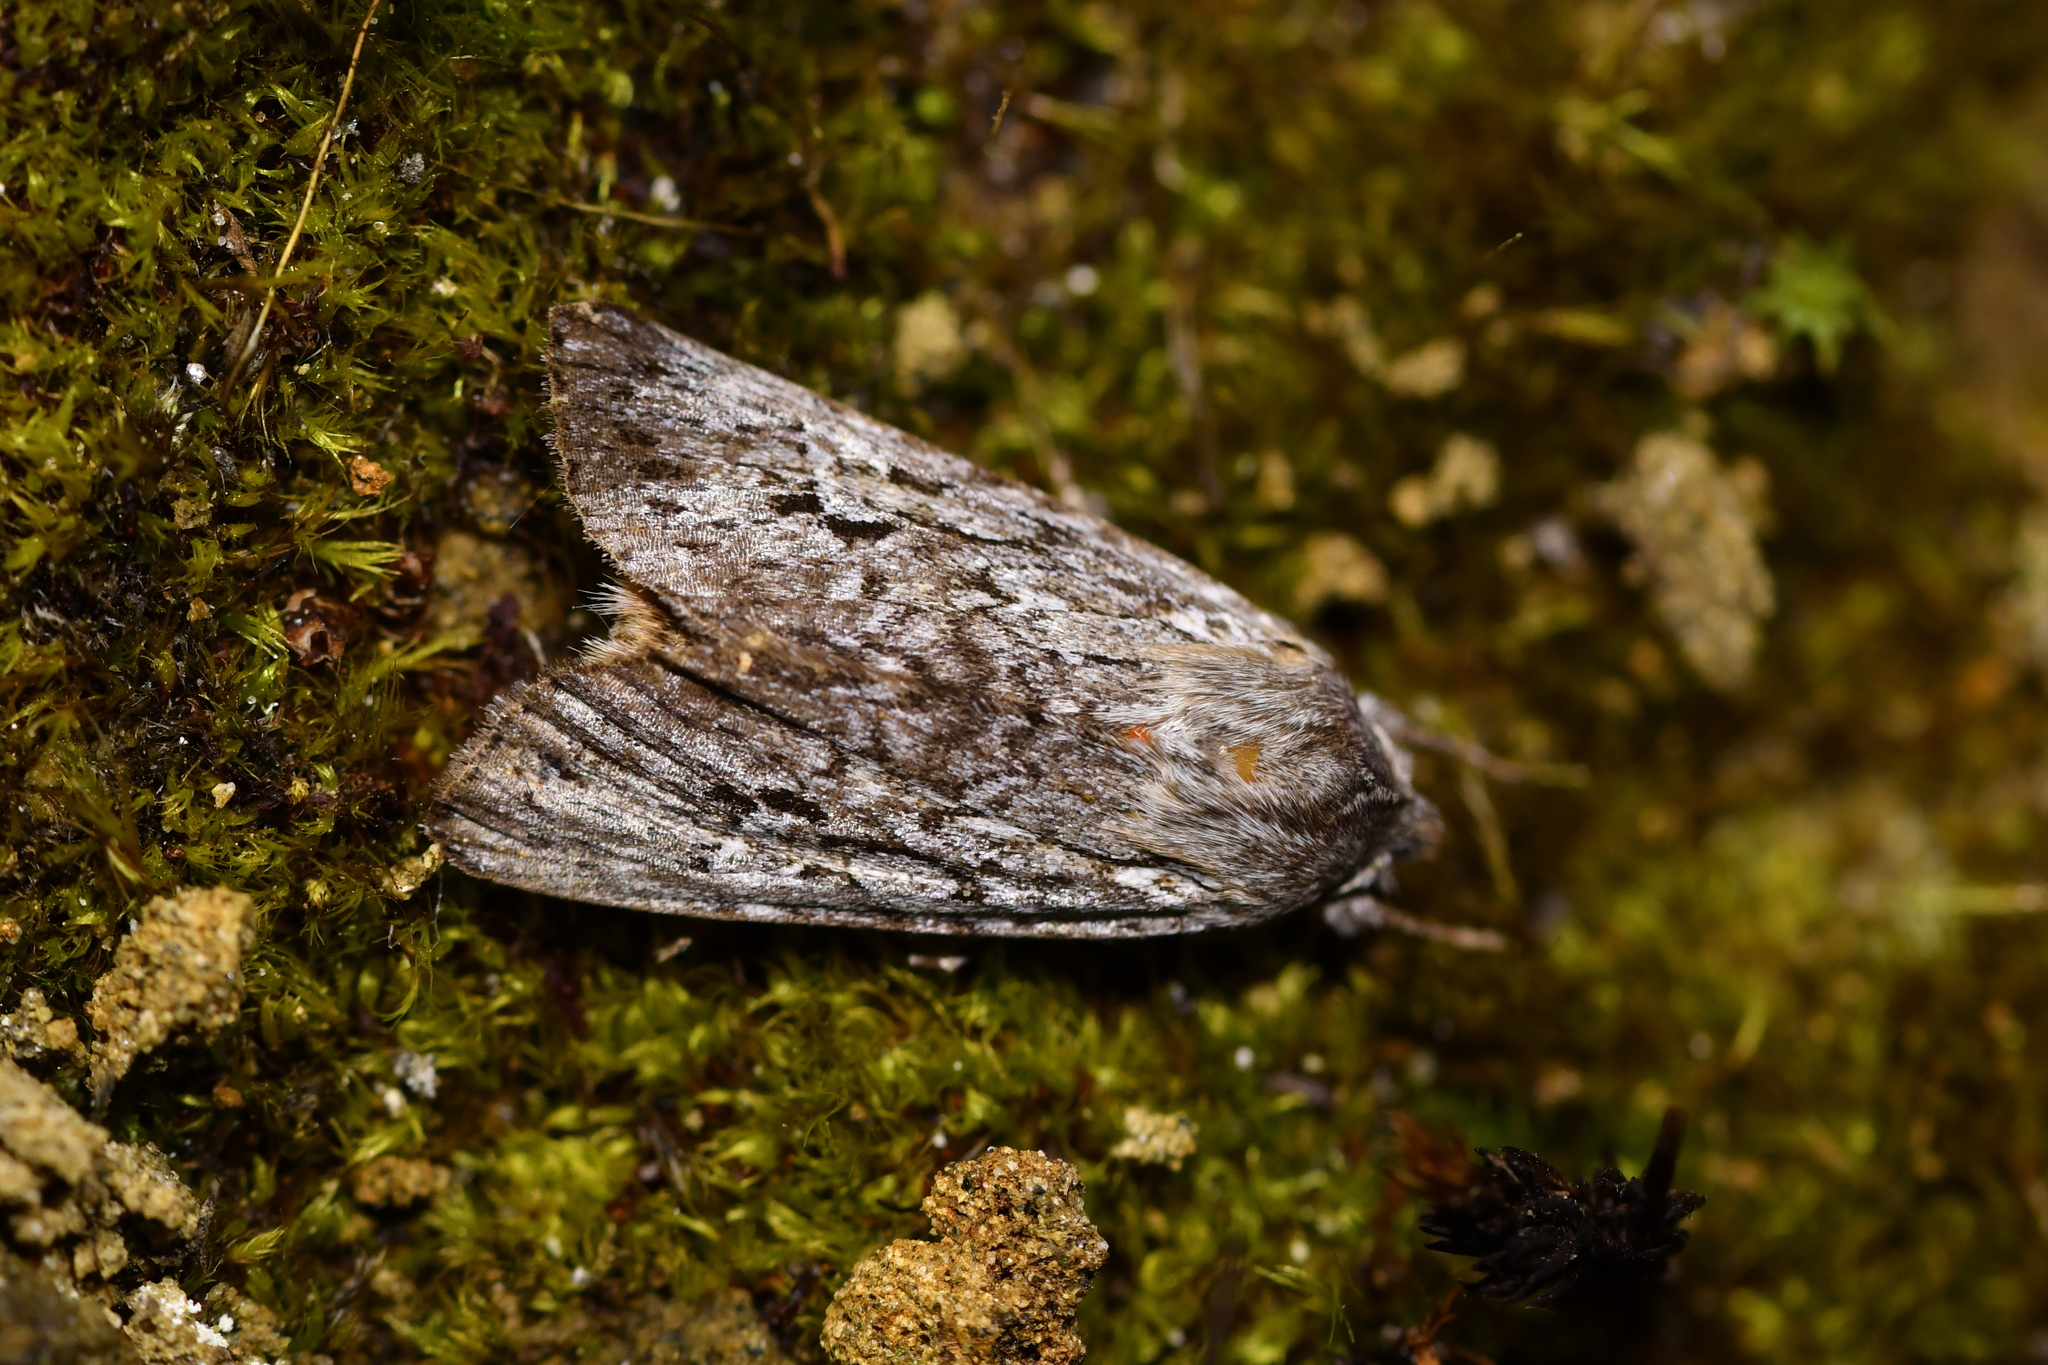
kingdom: Animalia
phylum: Arthropoda
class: Insecta
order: Lepidoptera
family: Noctuidae
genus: Physetica
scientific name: Physetica sequens
